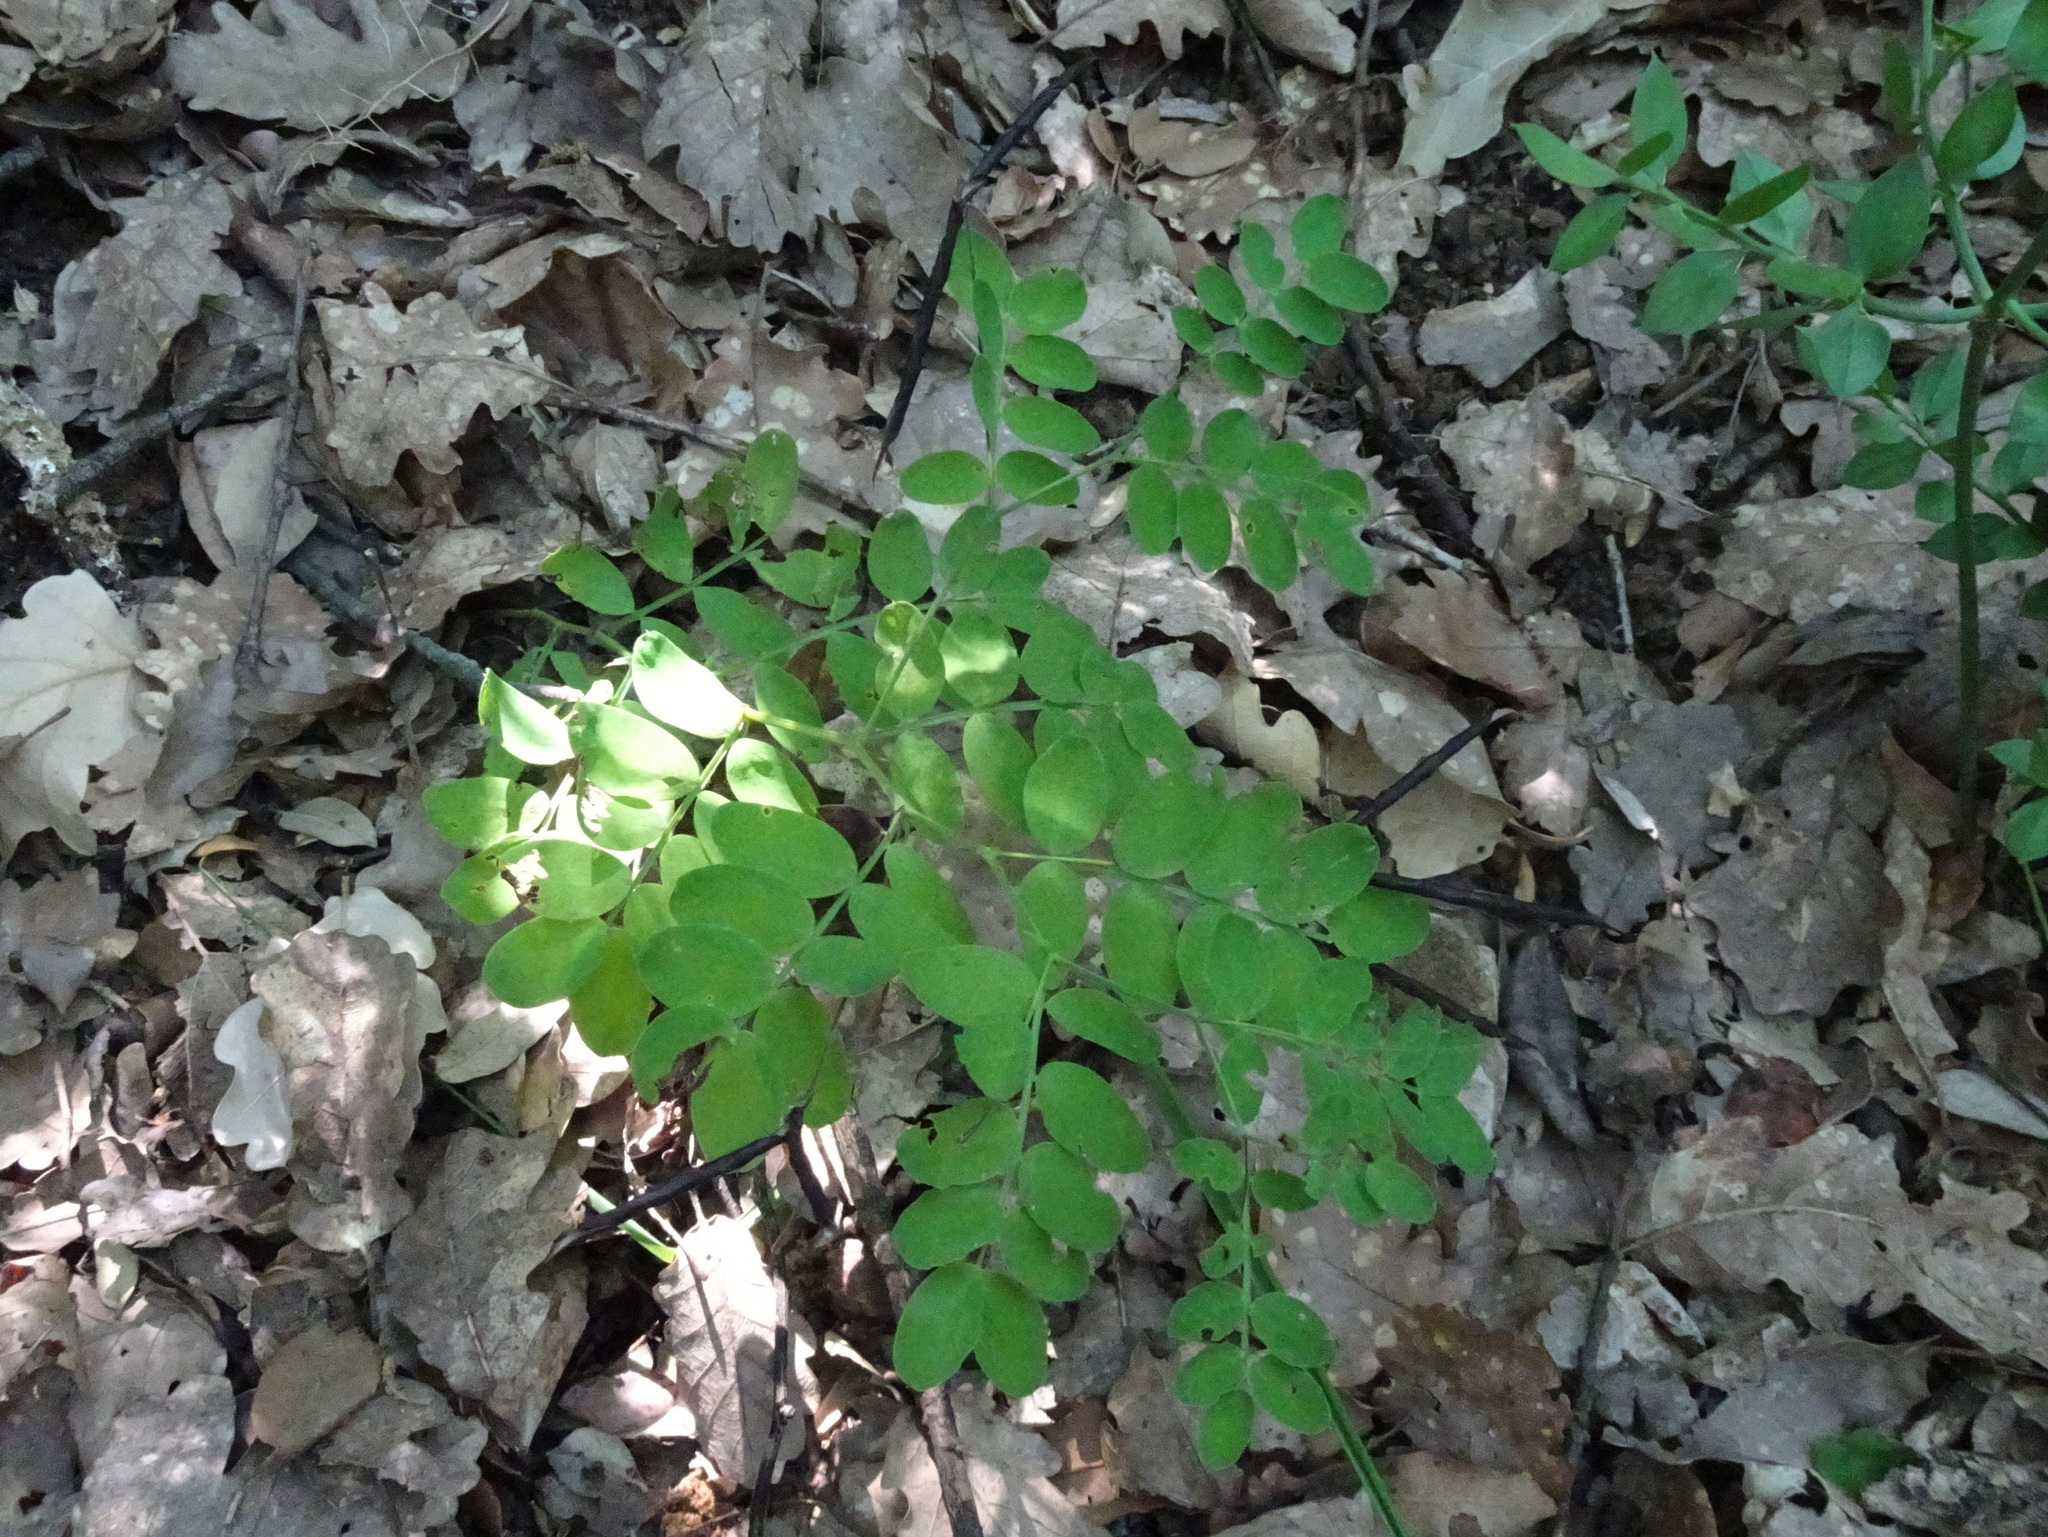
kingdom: Plantae
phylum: Tracheophyta
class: Magnoliopsida
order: Fabales
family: Fabaceae
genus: Lathyrus
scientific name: Lathyrus niger
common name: Black pea
